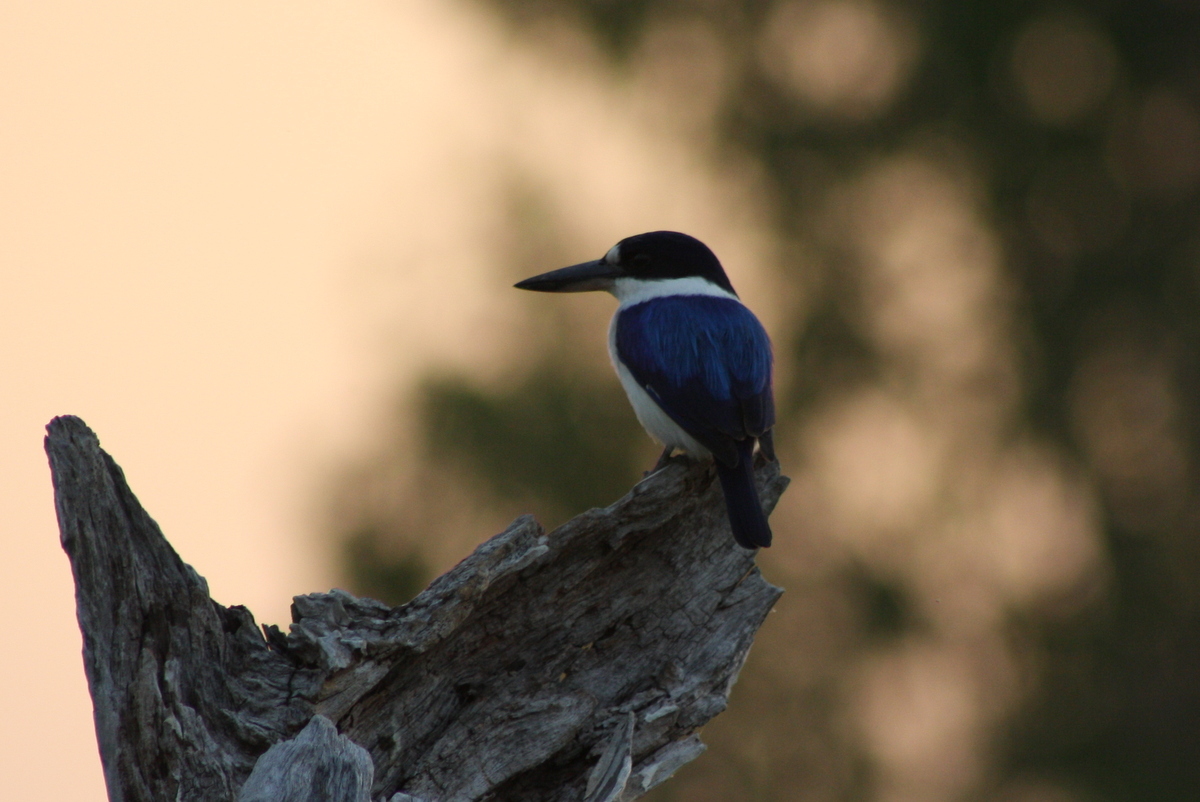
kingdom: Animalia
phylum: Chordata
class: Aves
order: Coraciiformes
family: Alcedinidae
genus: Todiramphus
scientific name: Todiramphus macleayii
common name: Forest kingfisher
